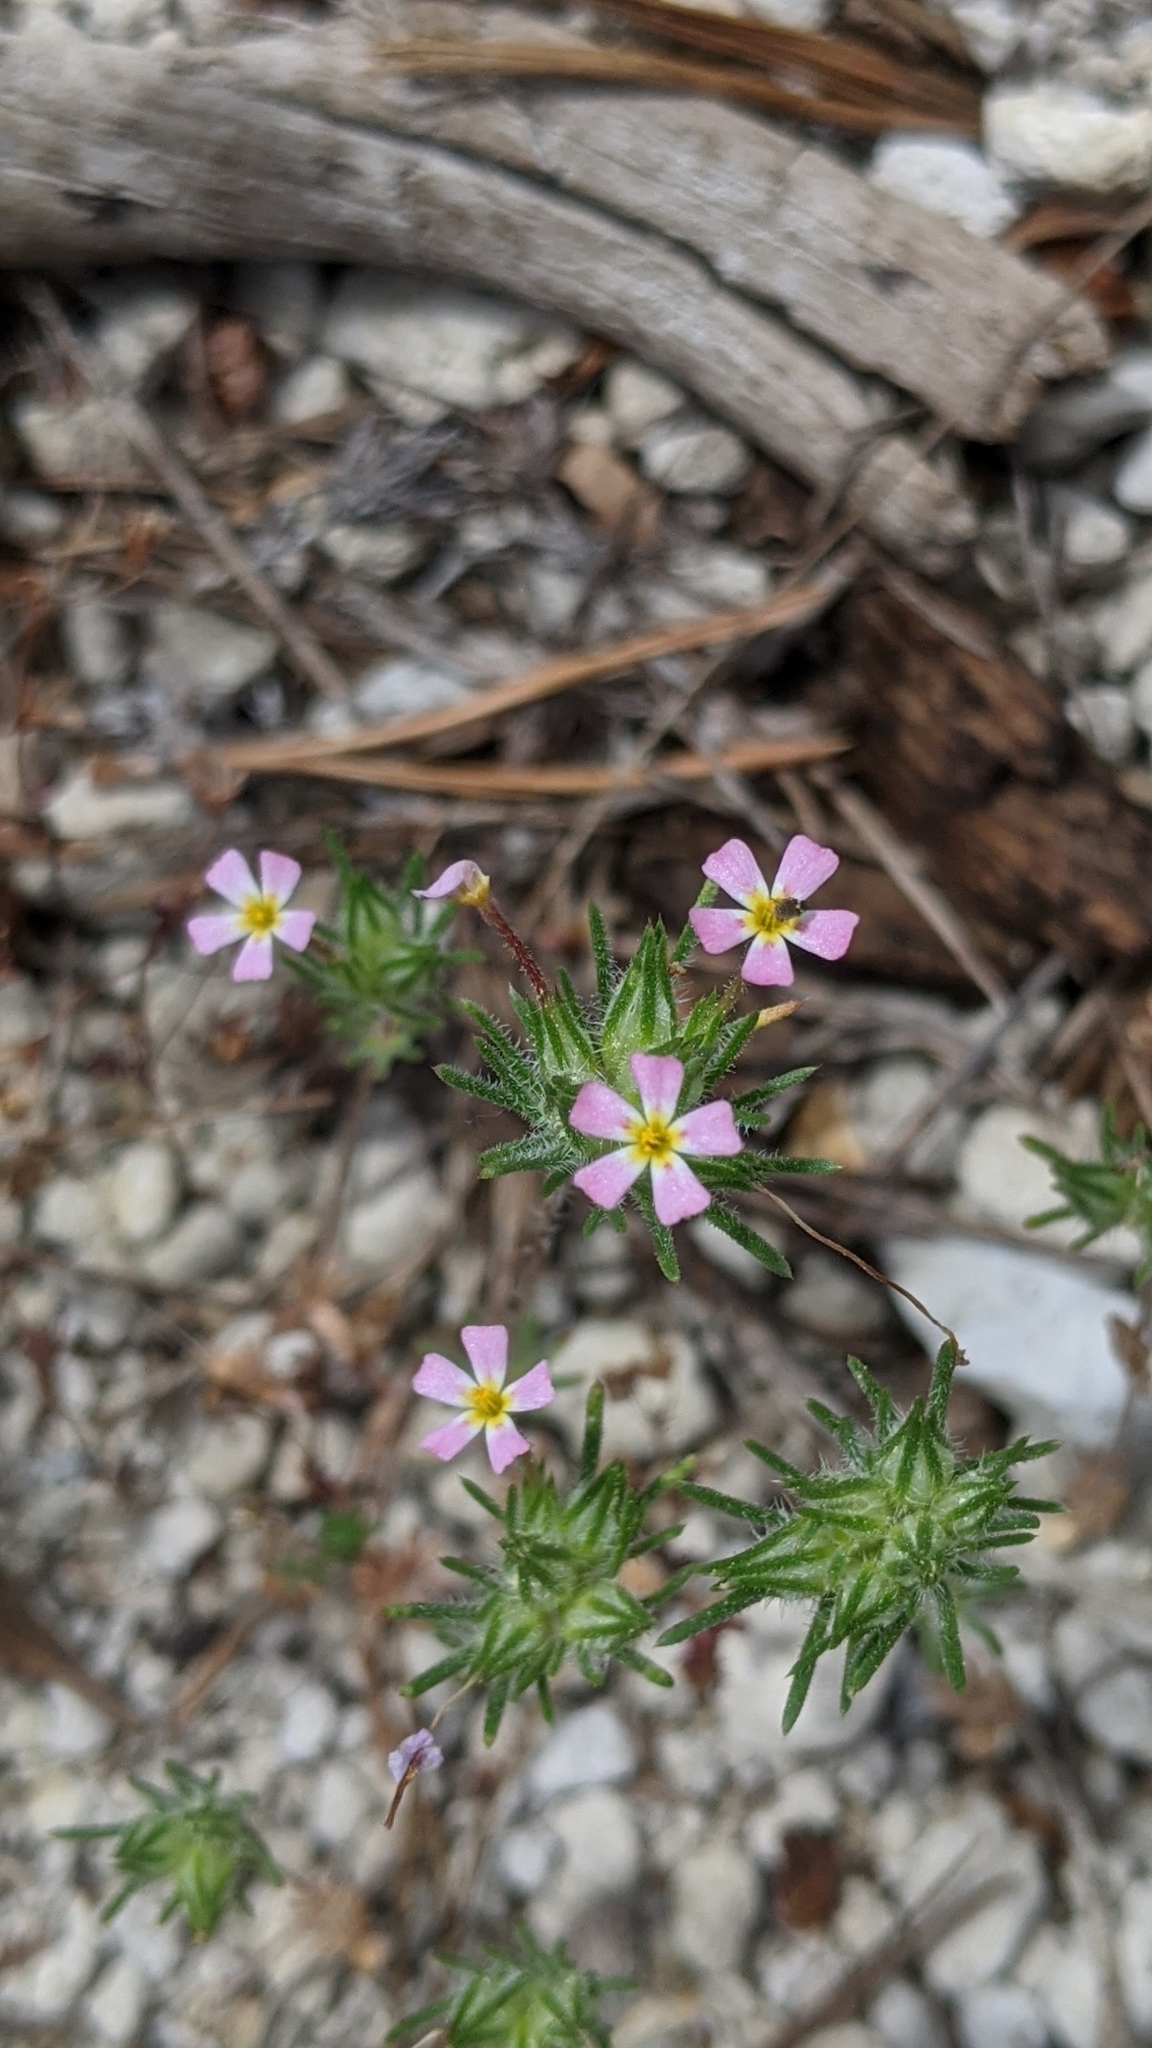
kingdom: Plantae
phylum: Tracheophyta
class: Magnoliopsida
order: Ericales
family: Polemoniaceae
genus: Leptosiphon
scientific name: Leptosiphon ciliatus
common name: Whiskerbrush
